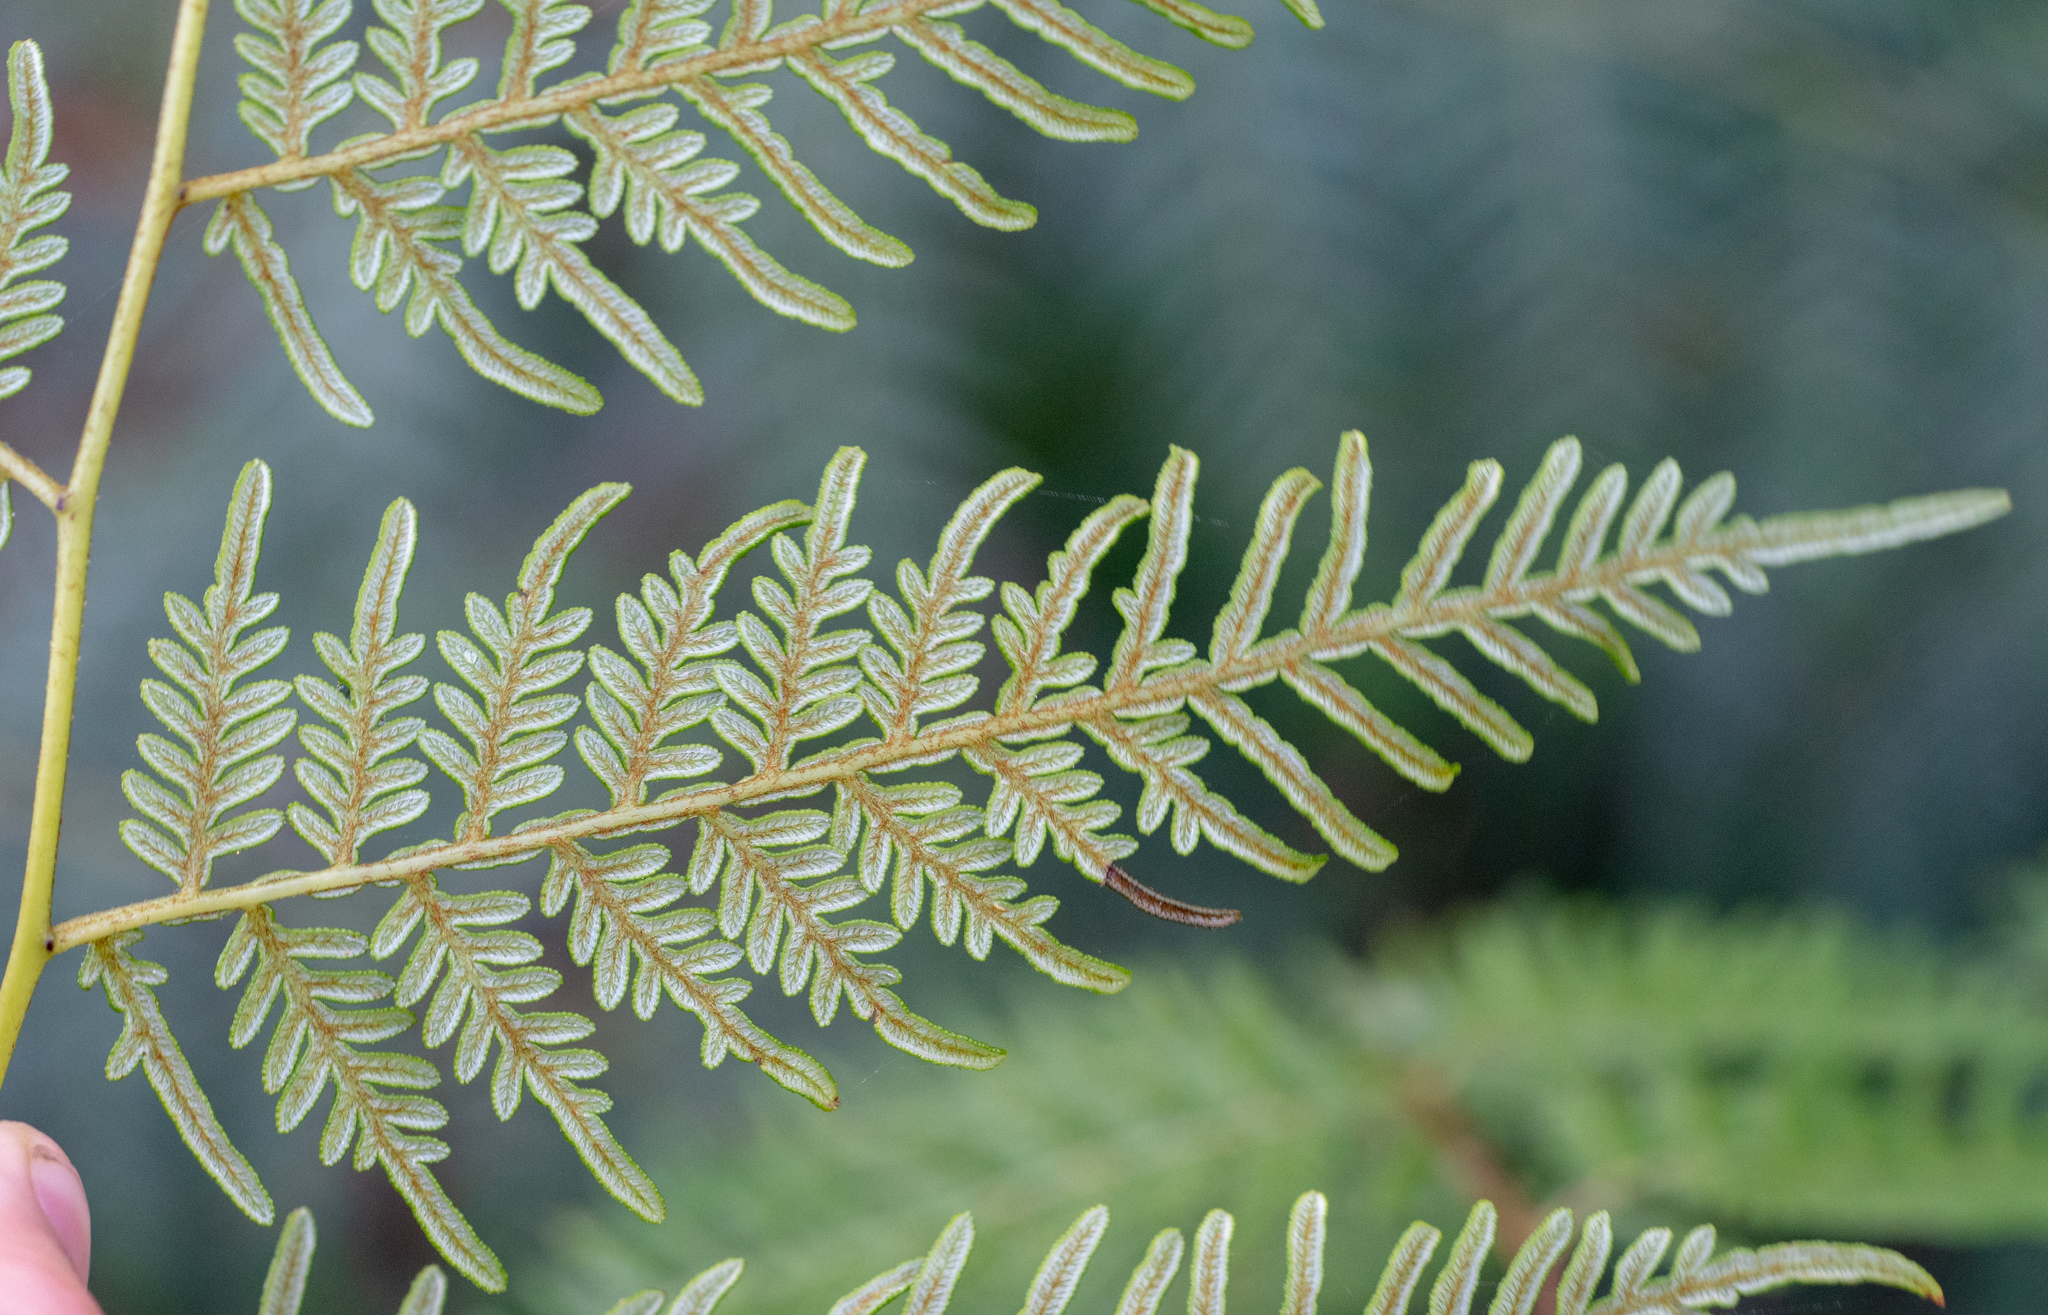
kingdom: Plantae
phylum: Tracheophyta
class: Polypodiopsida
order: Polypodiales
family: Dennstaedtiaceae
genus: Pteridium
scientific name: Pteridium esculentum
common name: Bracken fern
